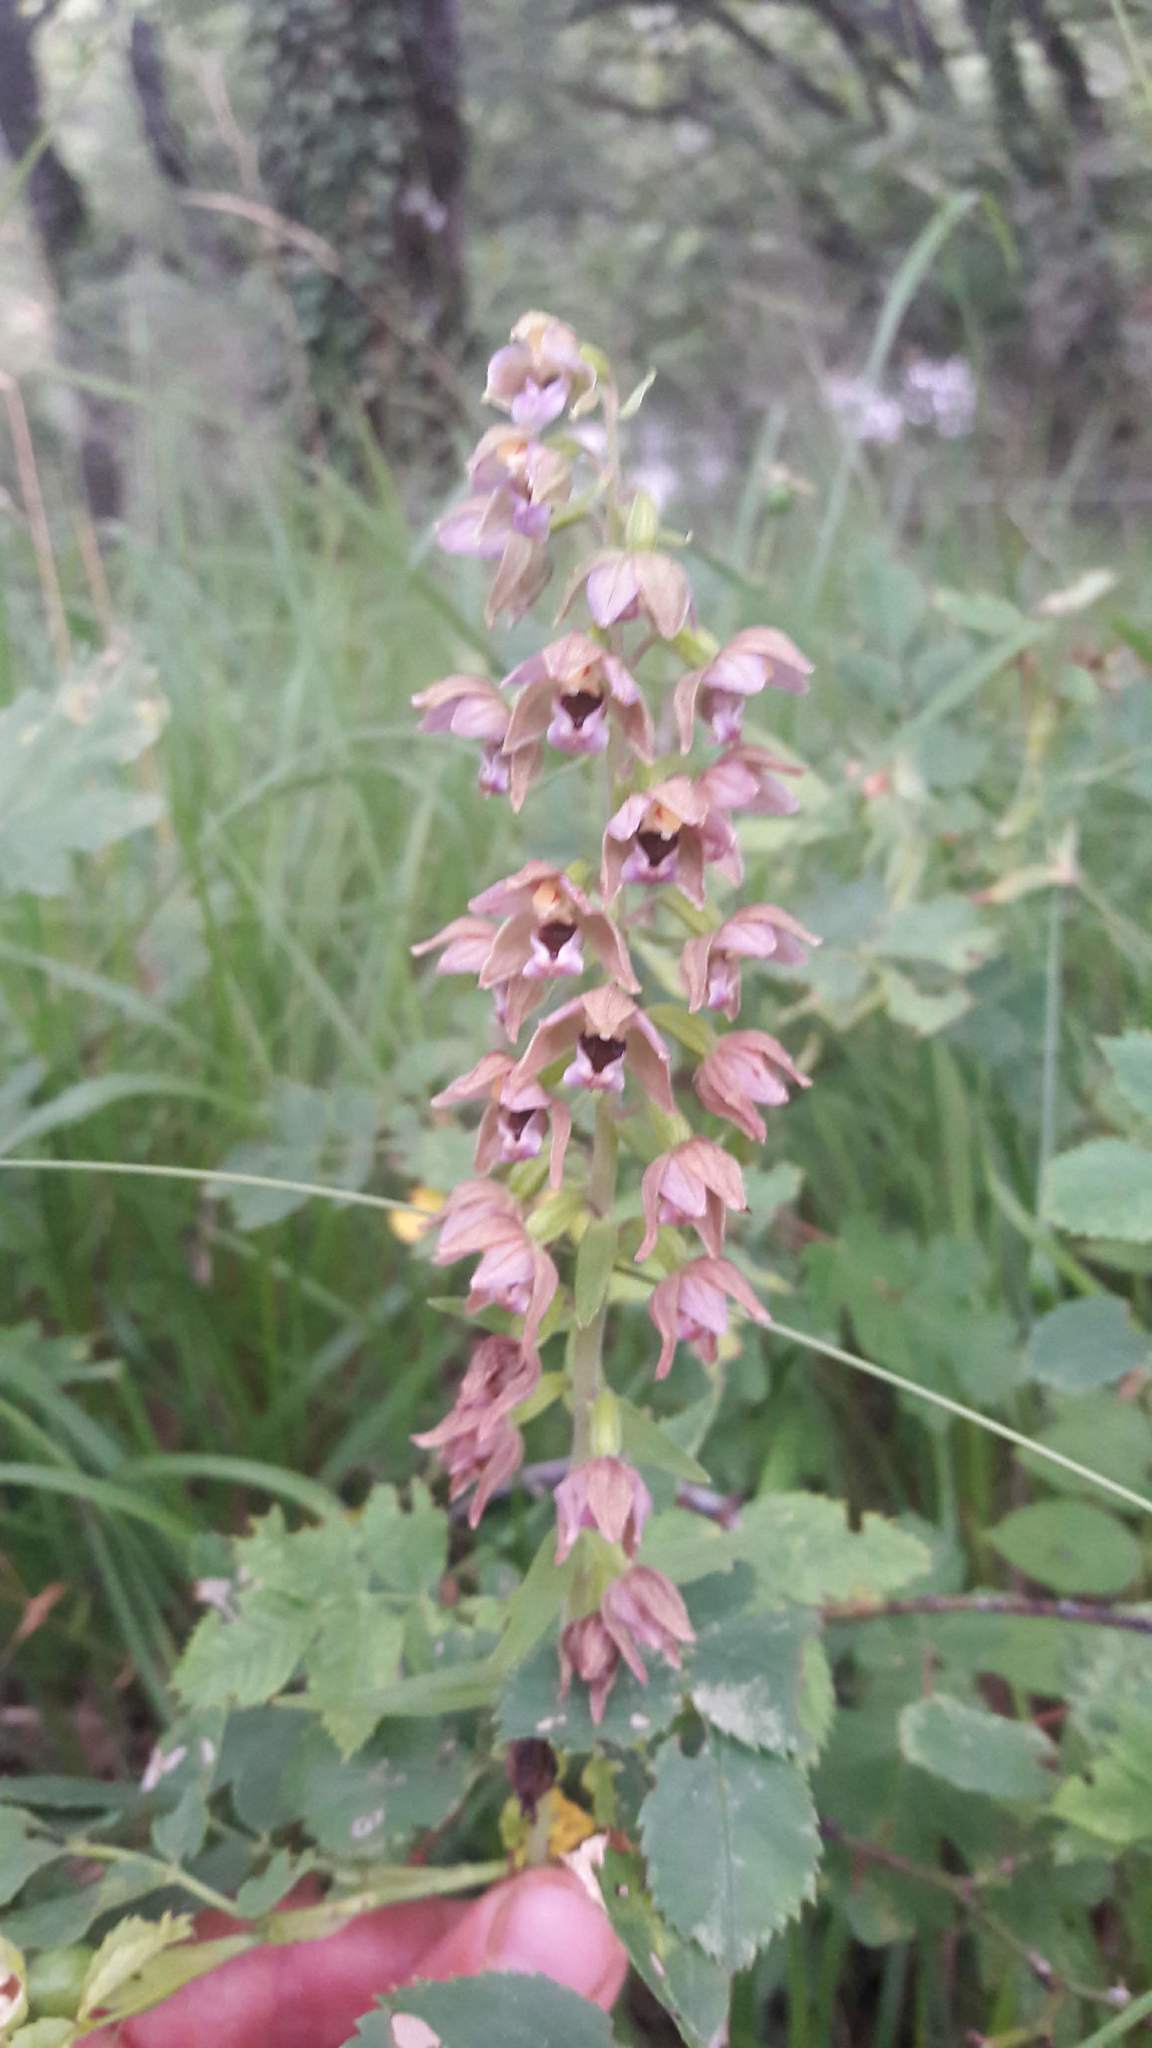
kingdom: Plantae
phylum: Tracheophyta
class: Liliopsida
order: Asparagales
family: Orchidaceae
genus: Epipactis
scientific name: Epipactis helleborine
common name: Broad-leaved helleborine
